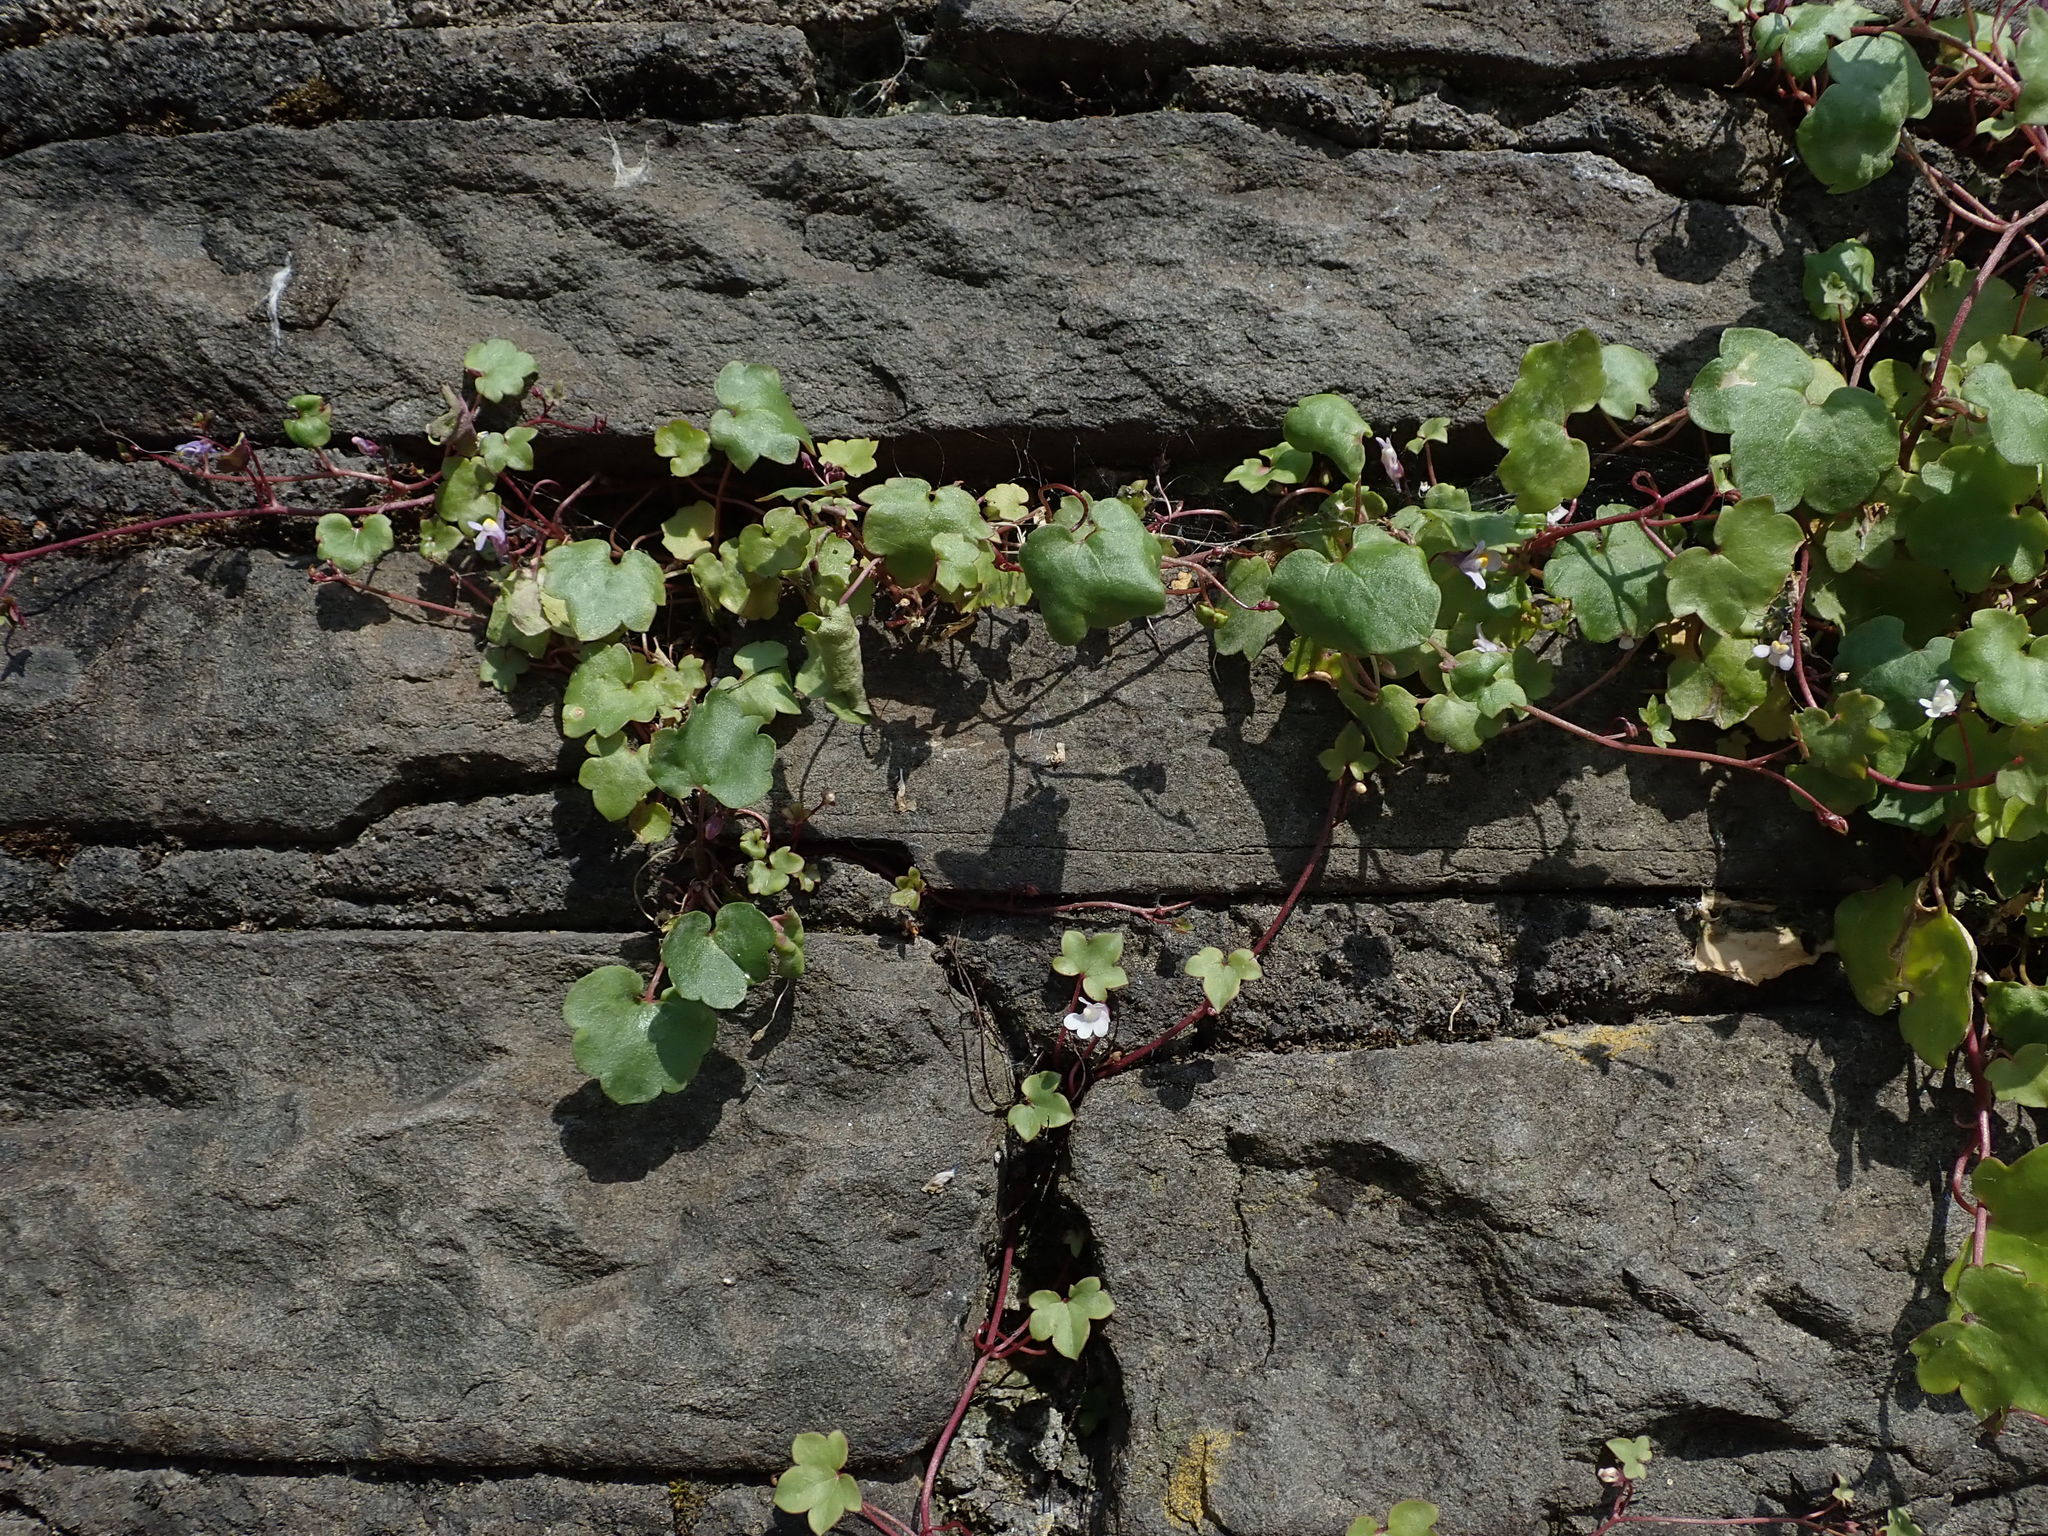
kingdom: Plantae
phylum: Tracheophyta
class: Magnoliopsida
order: Lamiales
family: Plantaginaceae
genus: Cymbalaria
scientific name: Cymbalaria muralis
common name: Ivy-leaved toadflax
